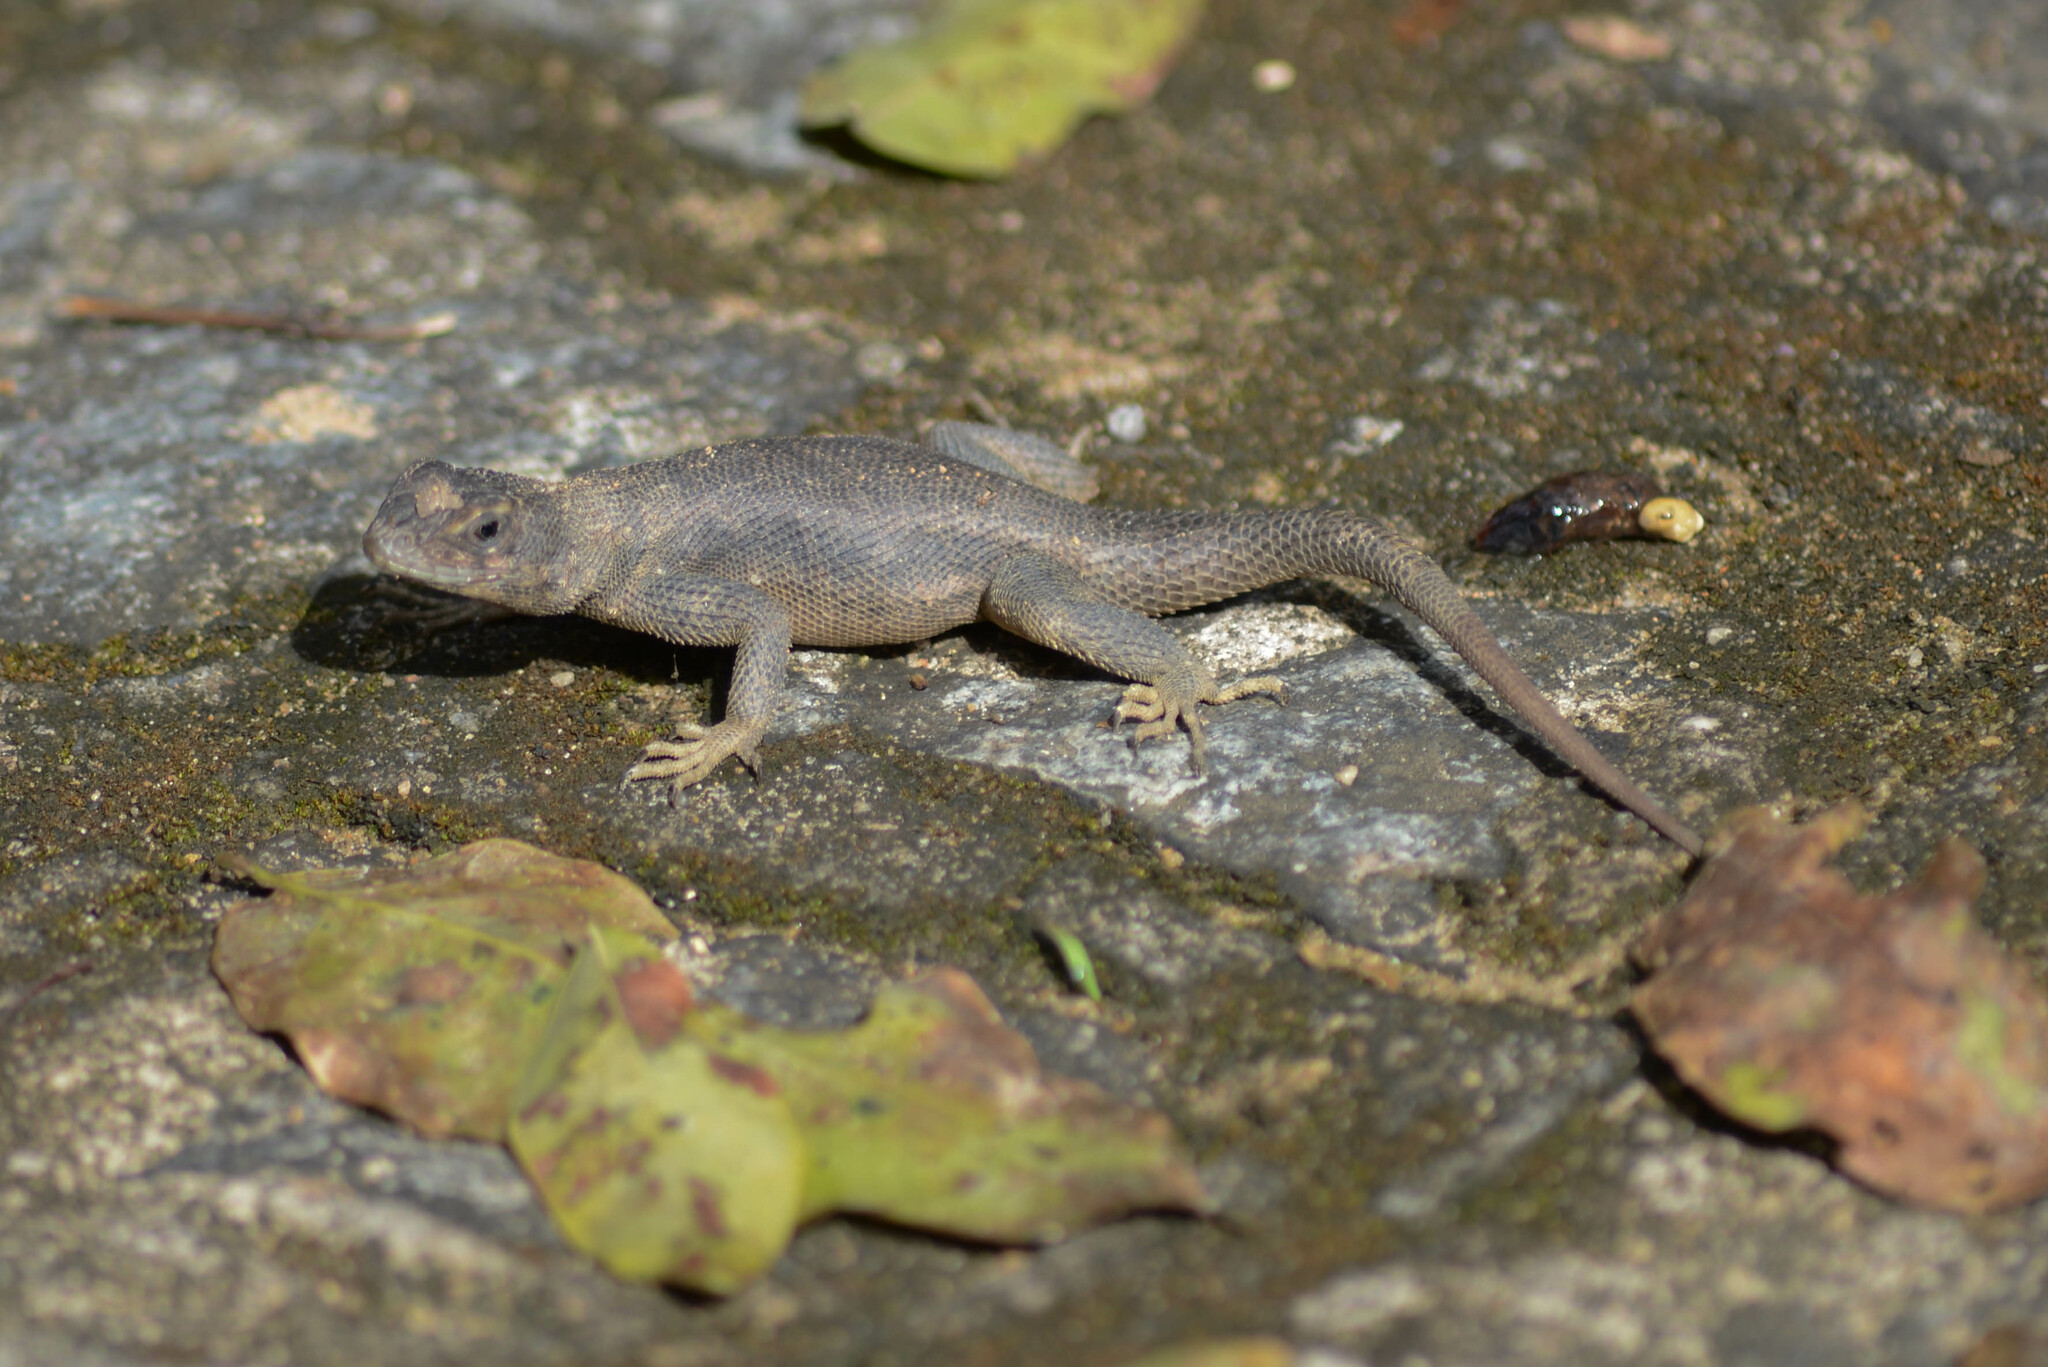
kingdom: Animalia
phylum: Chordata
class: Squamata
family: Tropiduridae
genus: Tropidurus
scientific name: Tropidurus hispidus
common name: Peters' lava lizard
